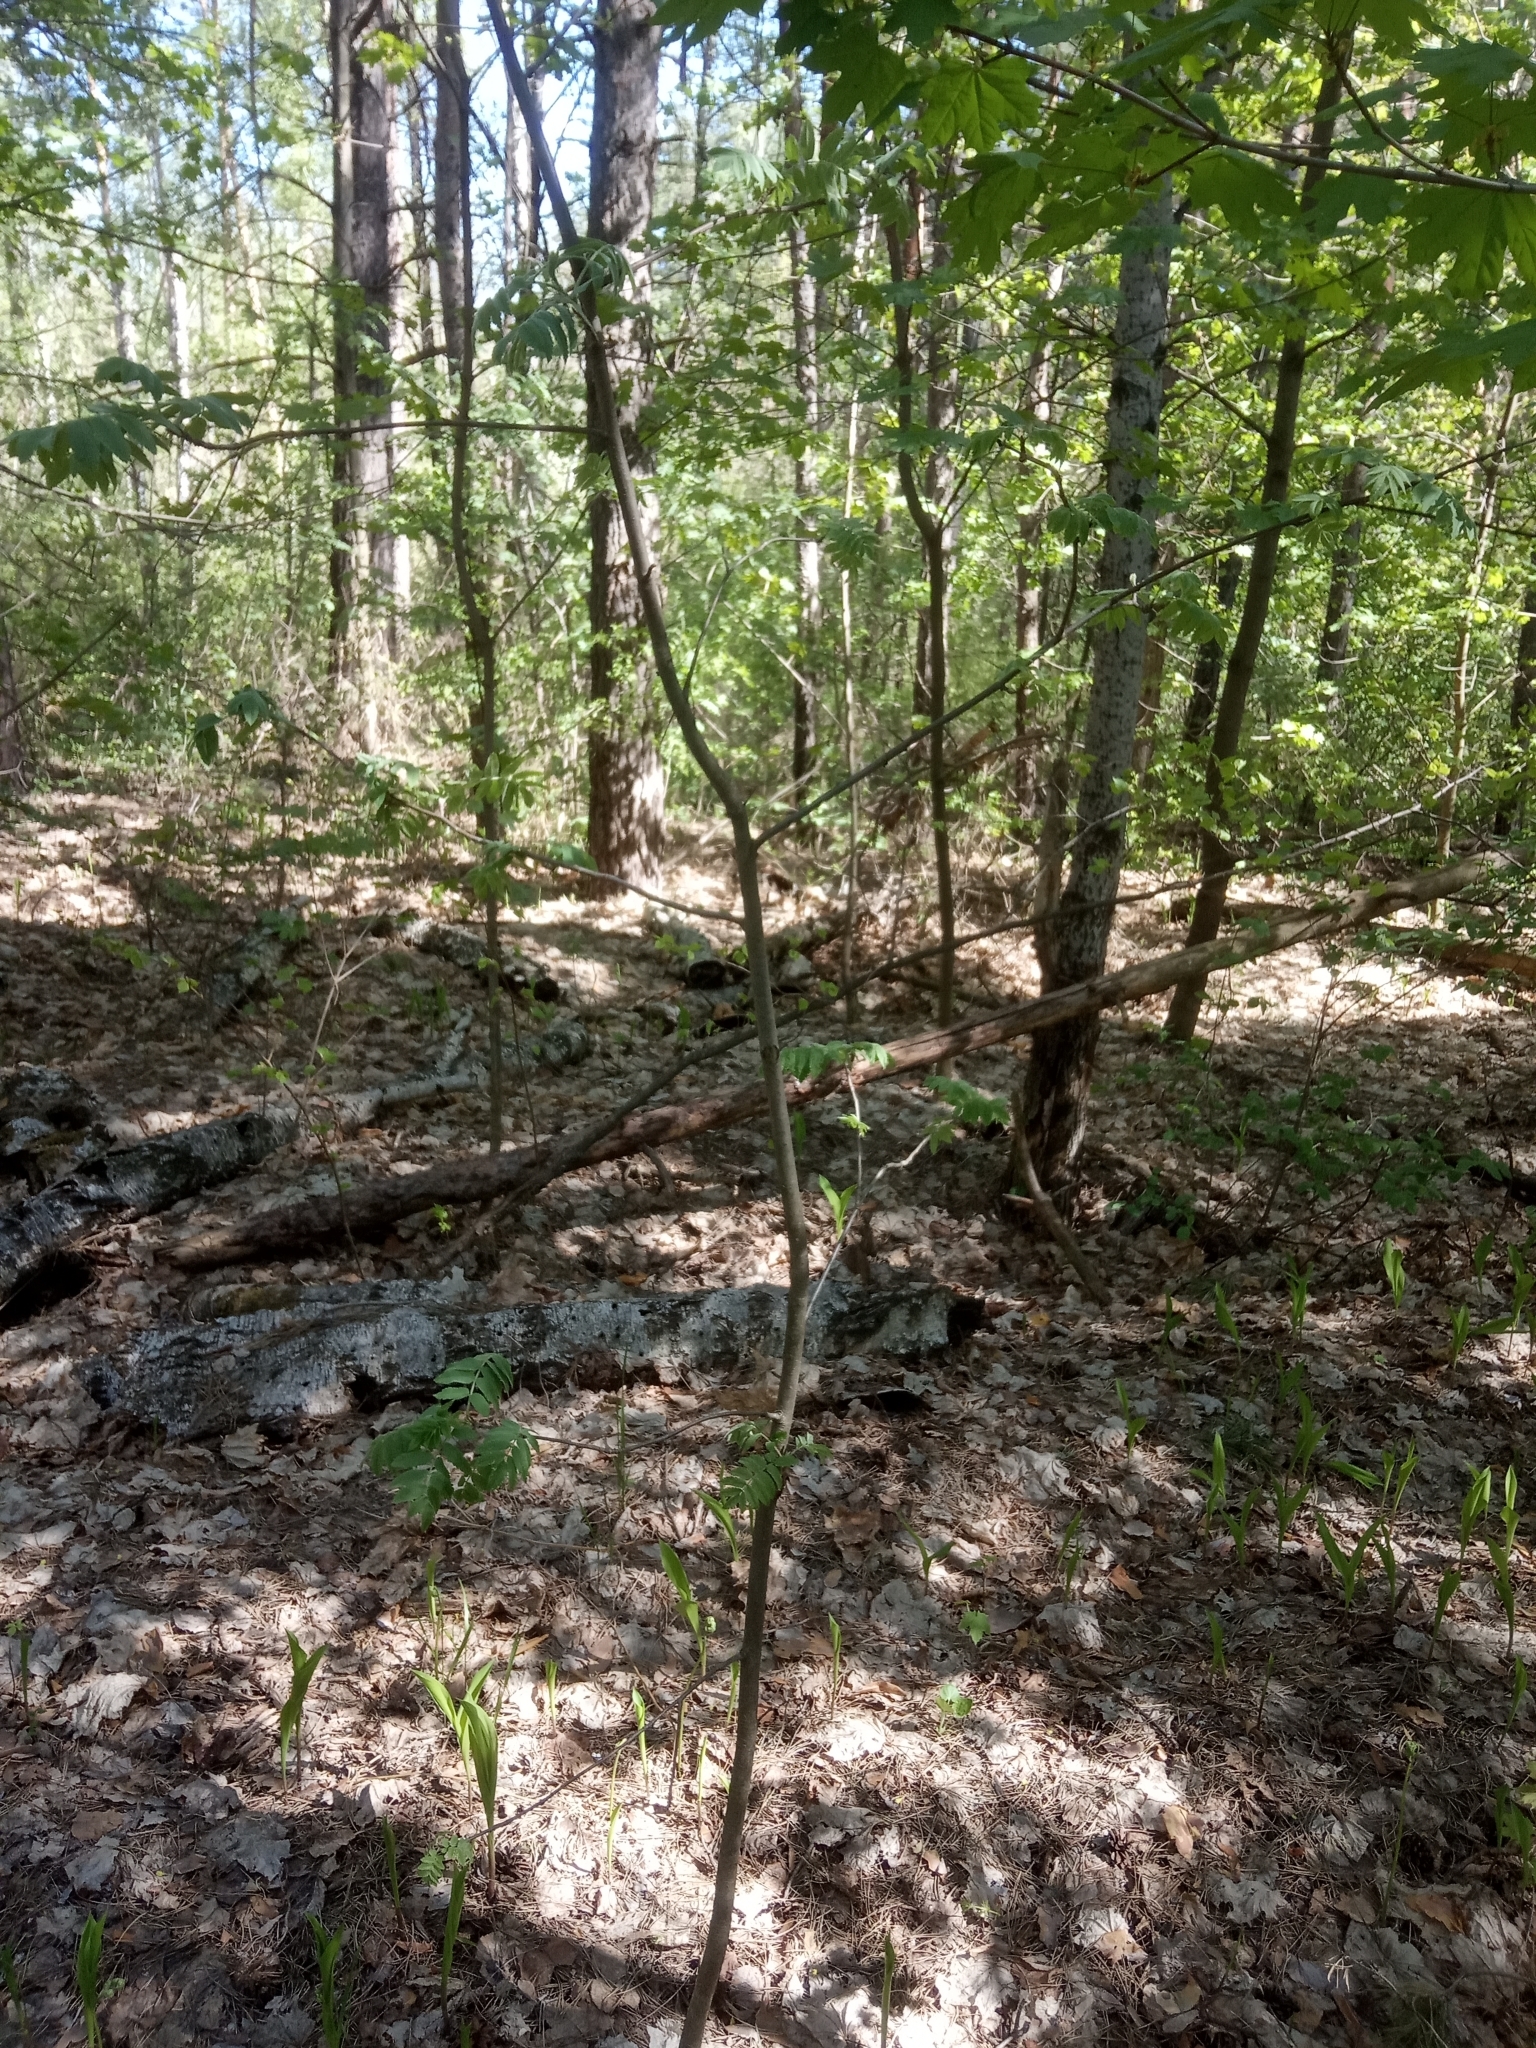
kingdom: Plantae
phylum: Tracheophyta
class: Magnoliopsida
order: Rosales
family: Rosaceae
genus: Sorbus
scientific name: Sorbus aucuparia
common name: Rowan
